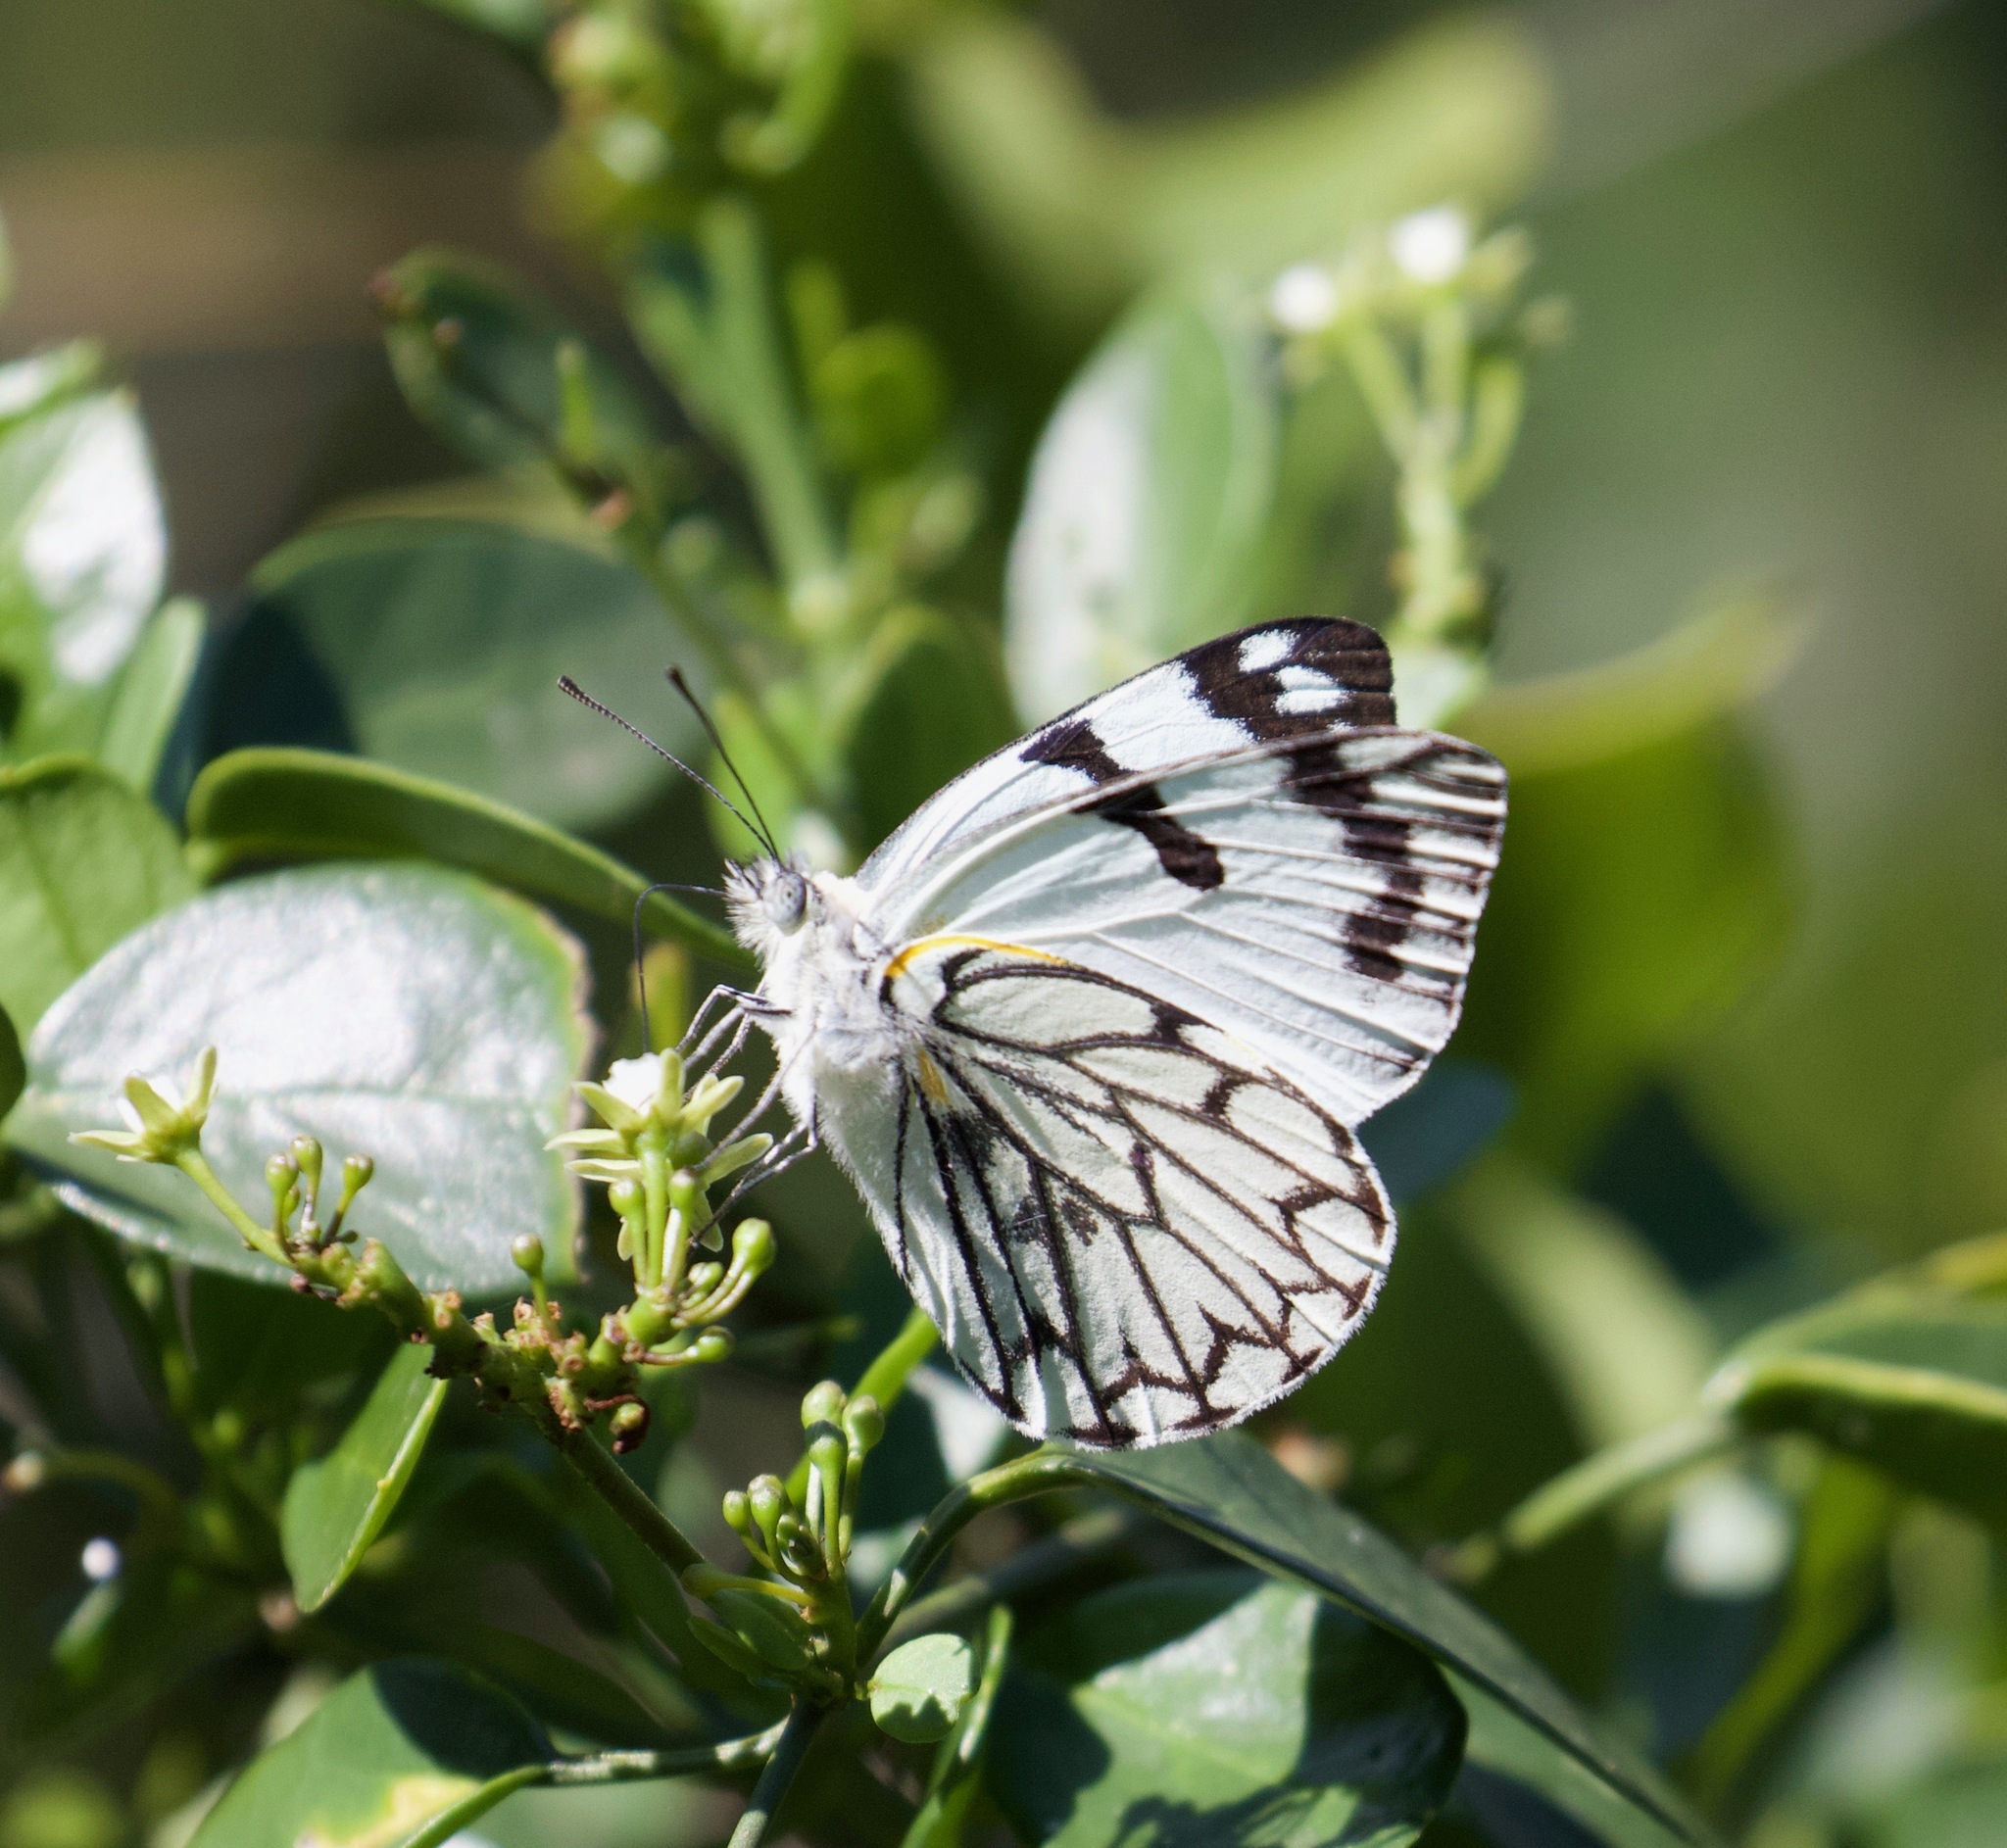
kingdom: Animalia
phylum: Arthropoda
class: Insecta
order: Lepidoptera
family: Pieridae
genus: Belenois
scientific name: Belenois zochalia
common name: Forest caper white
